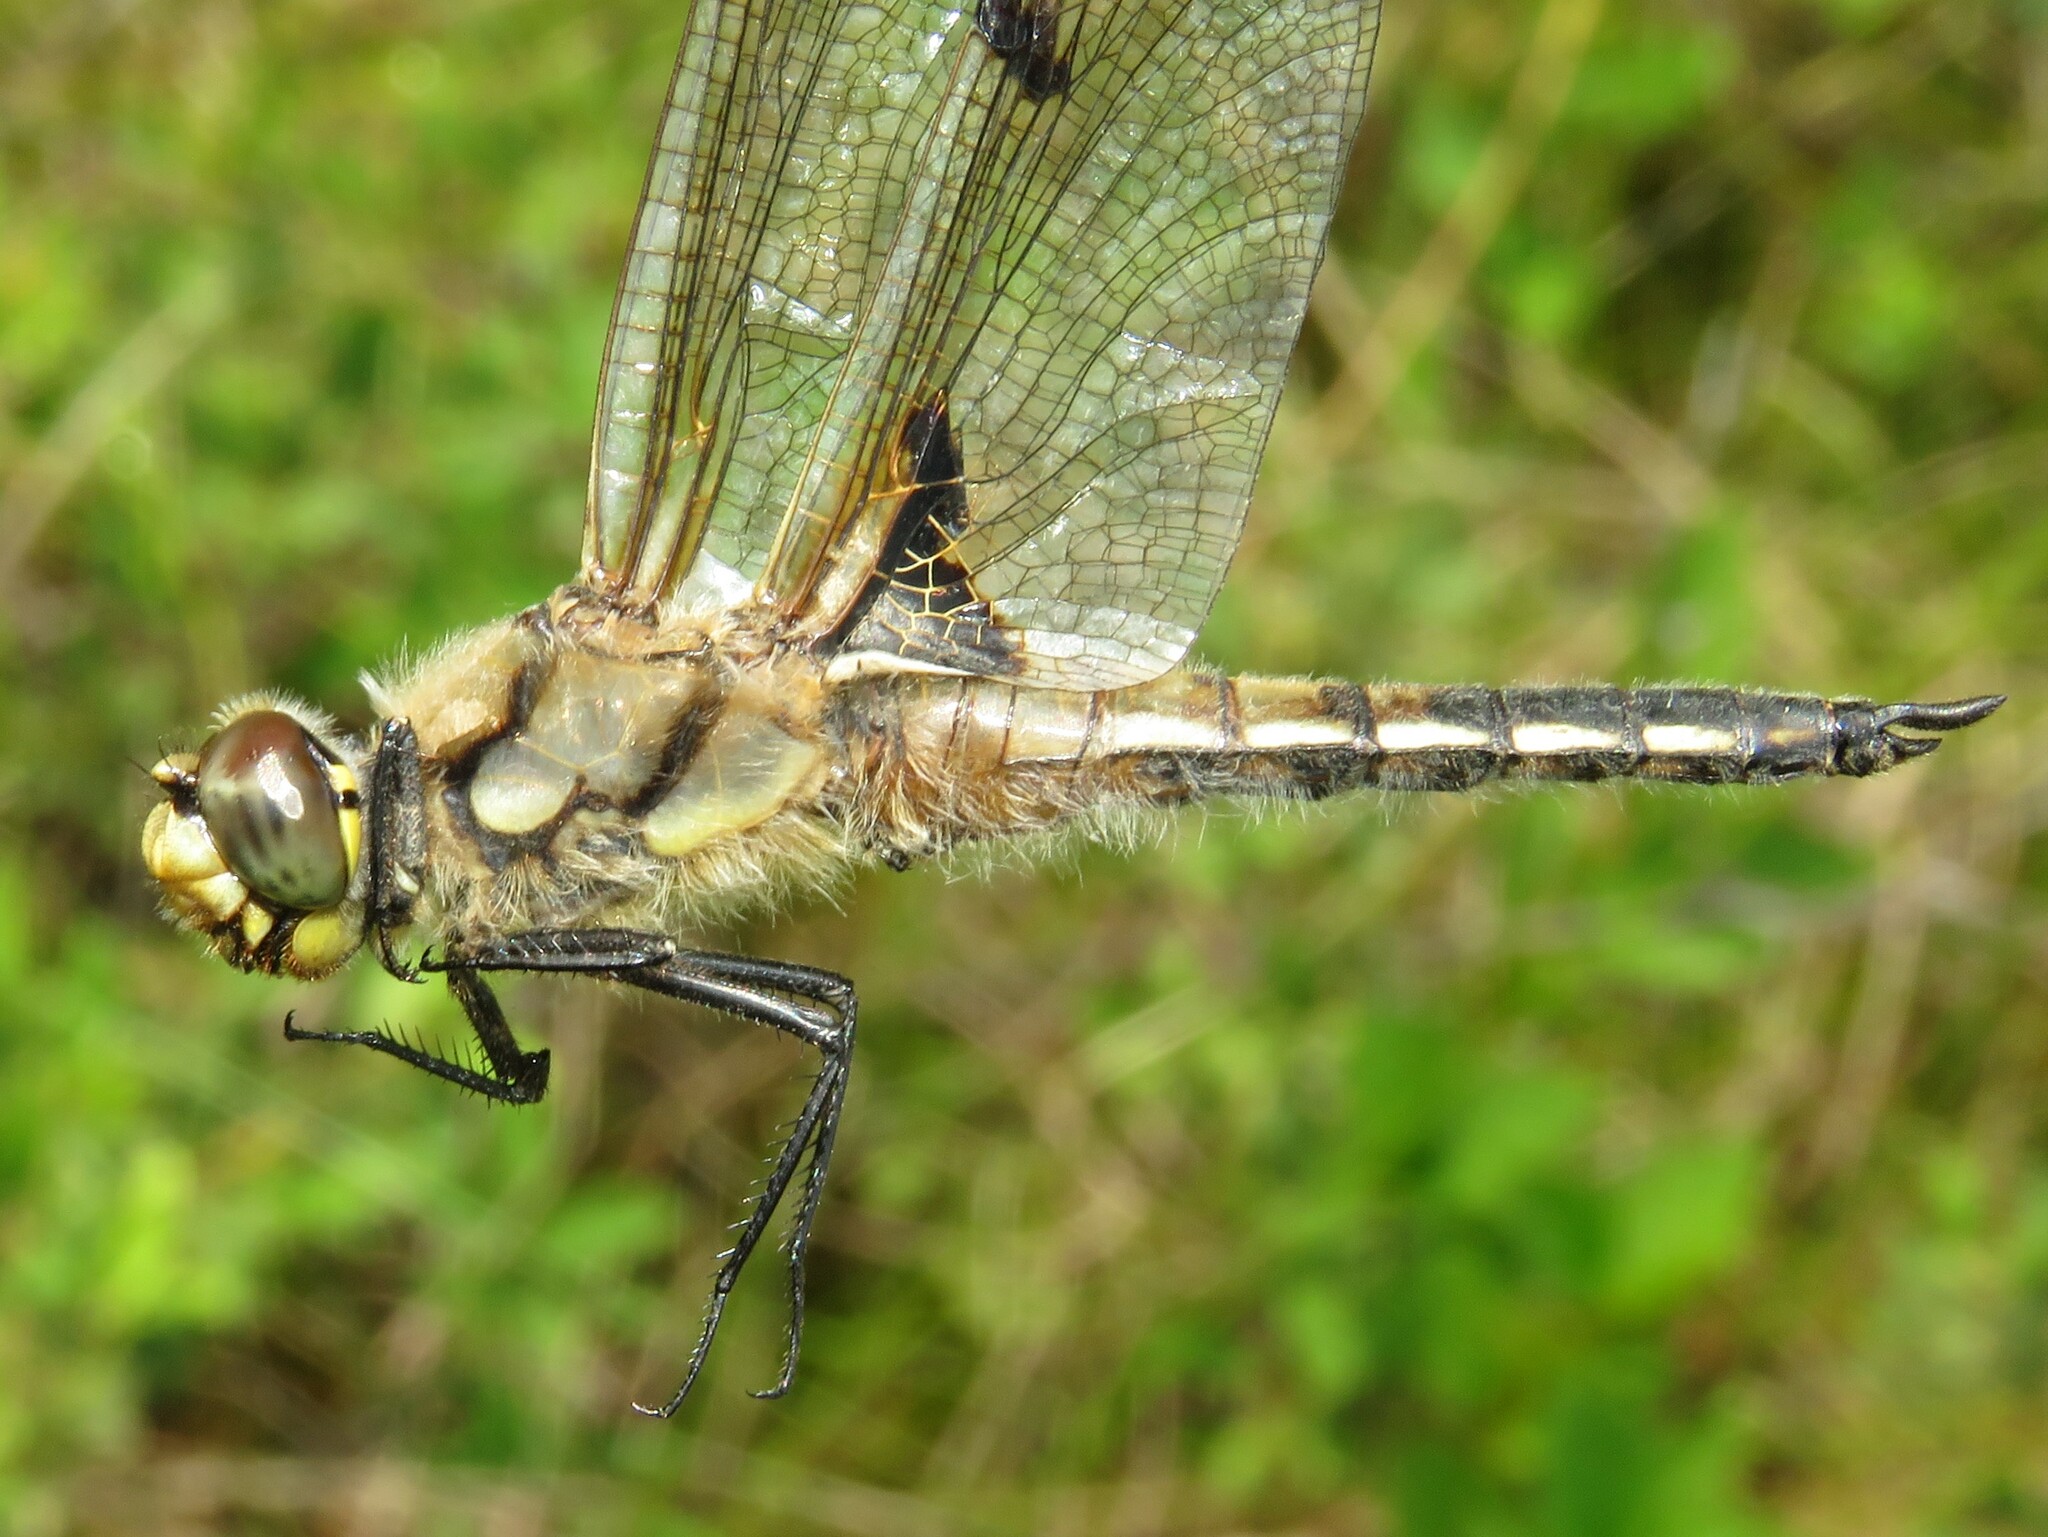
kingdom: Animalia
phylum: Arthropoda
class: Insecta
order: Odonata
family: Libellulidae
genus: Libellula
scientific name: Libellula quadrimaculata
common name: Four-spotted chaser
